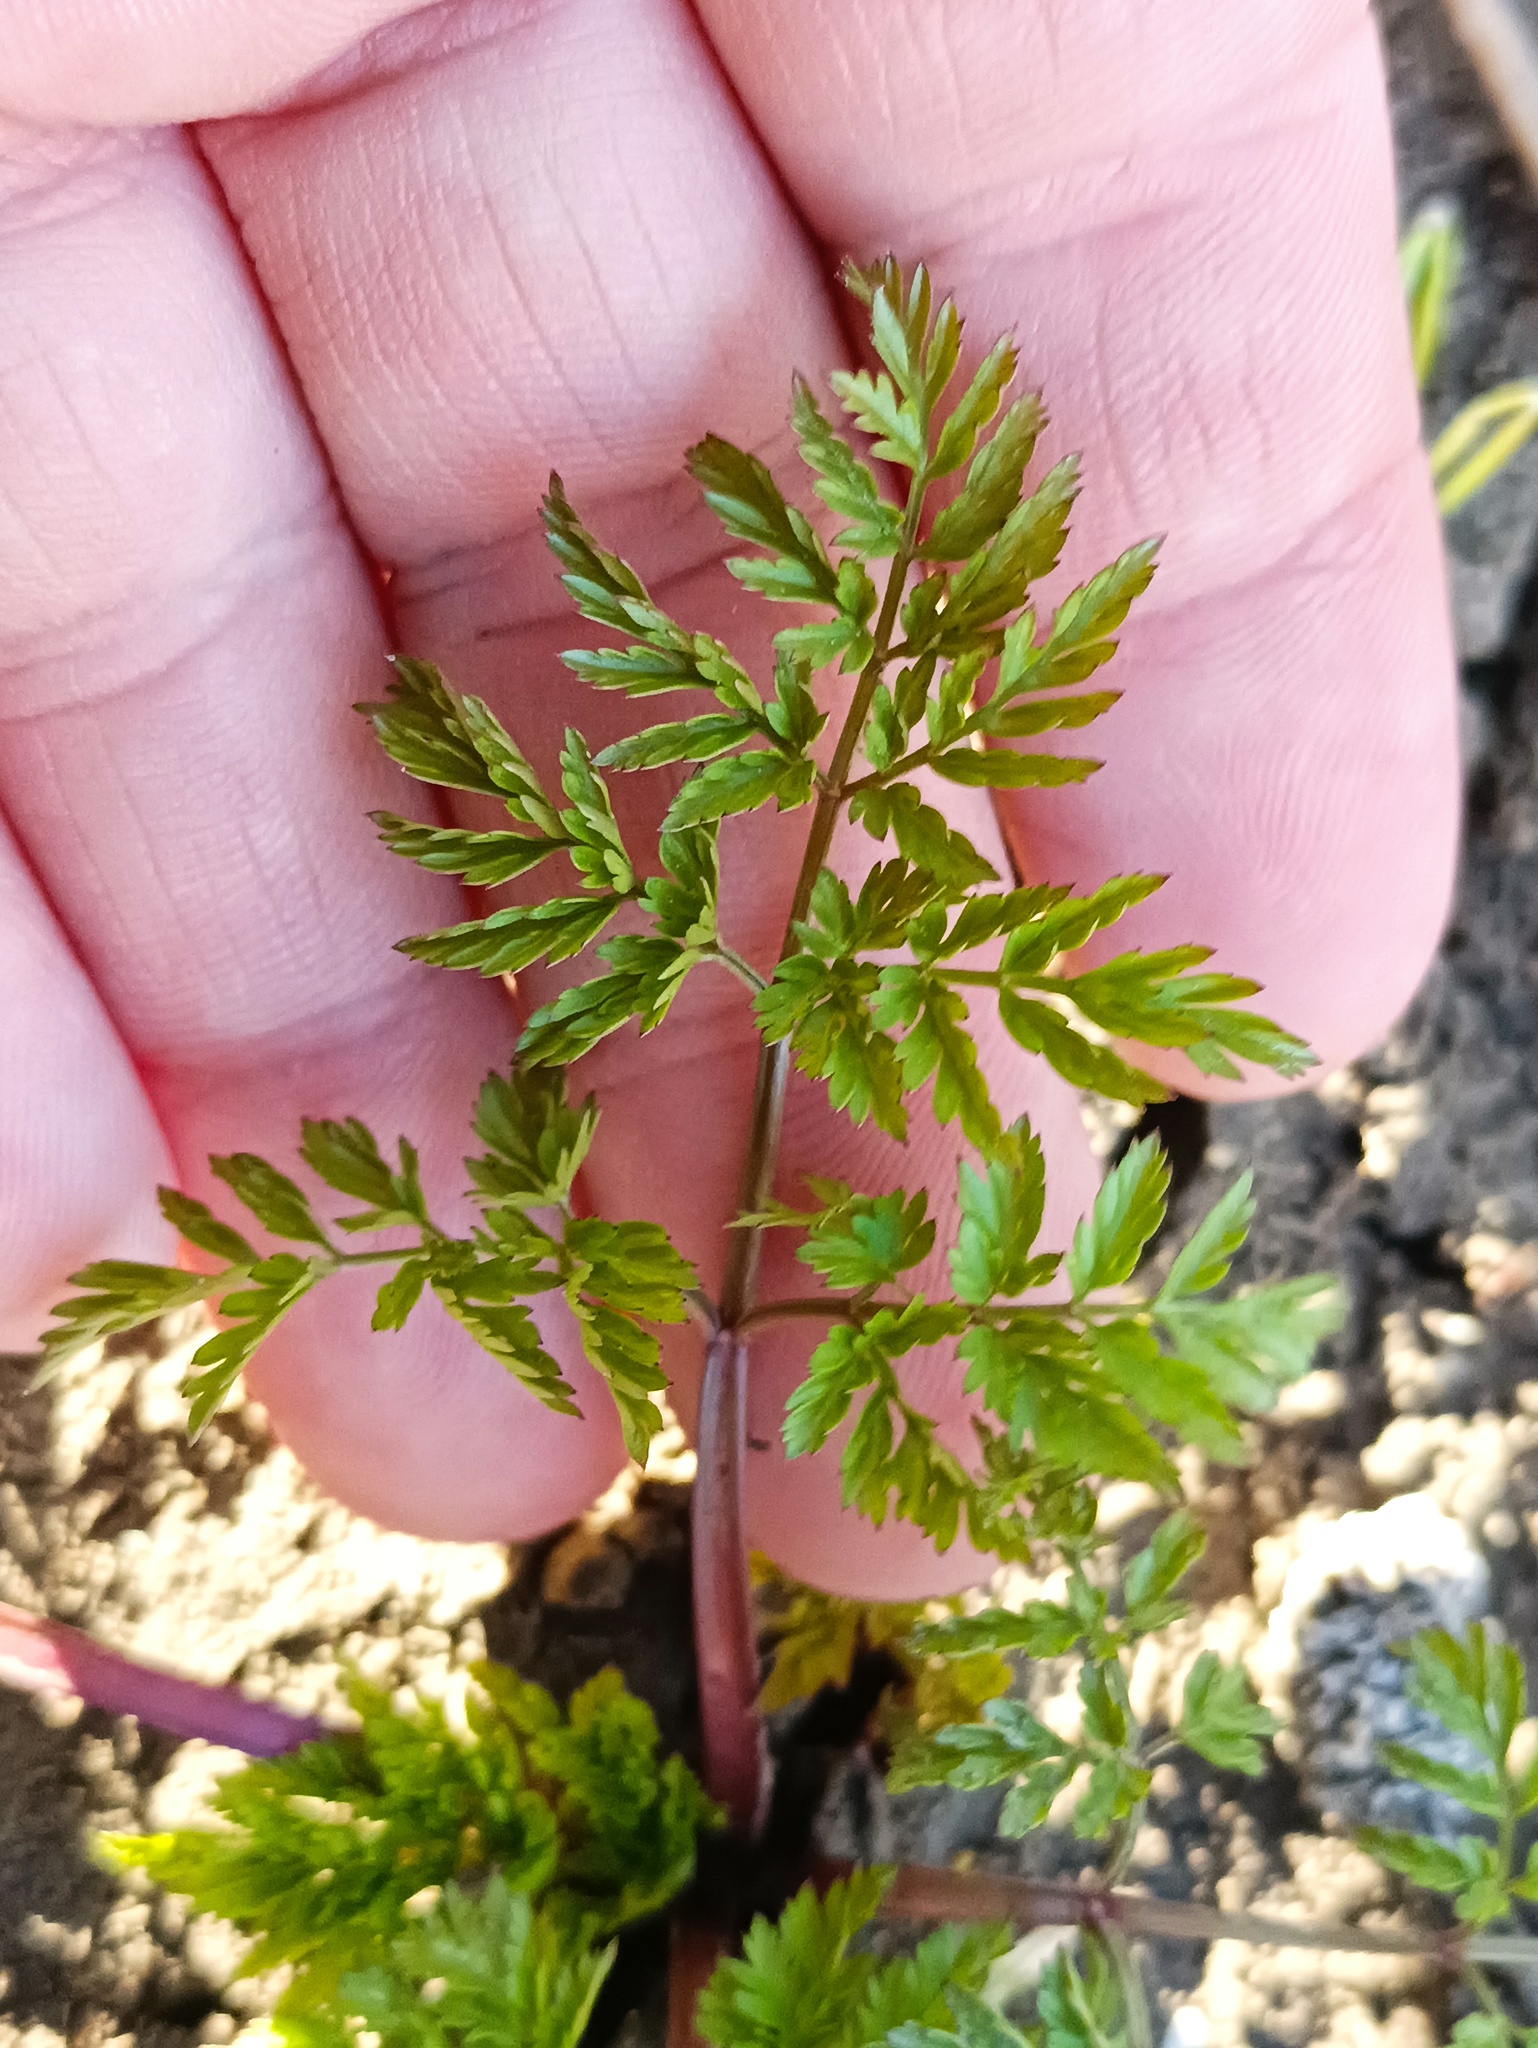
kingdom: Plantae
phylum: Tracheophyta
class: Magnoliopsida
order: Apiales
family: Apiaceae
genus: Anthriscus
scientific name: Anthriscus sylvestris
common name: Cow parsley
